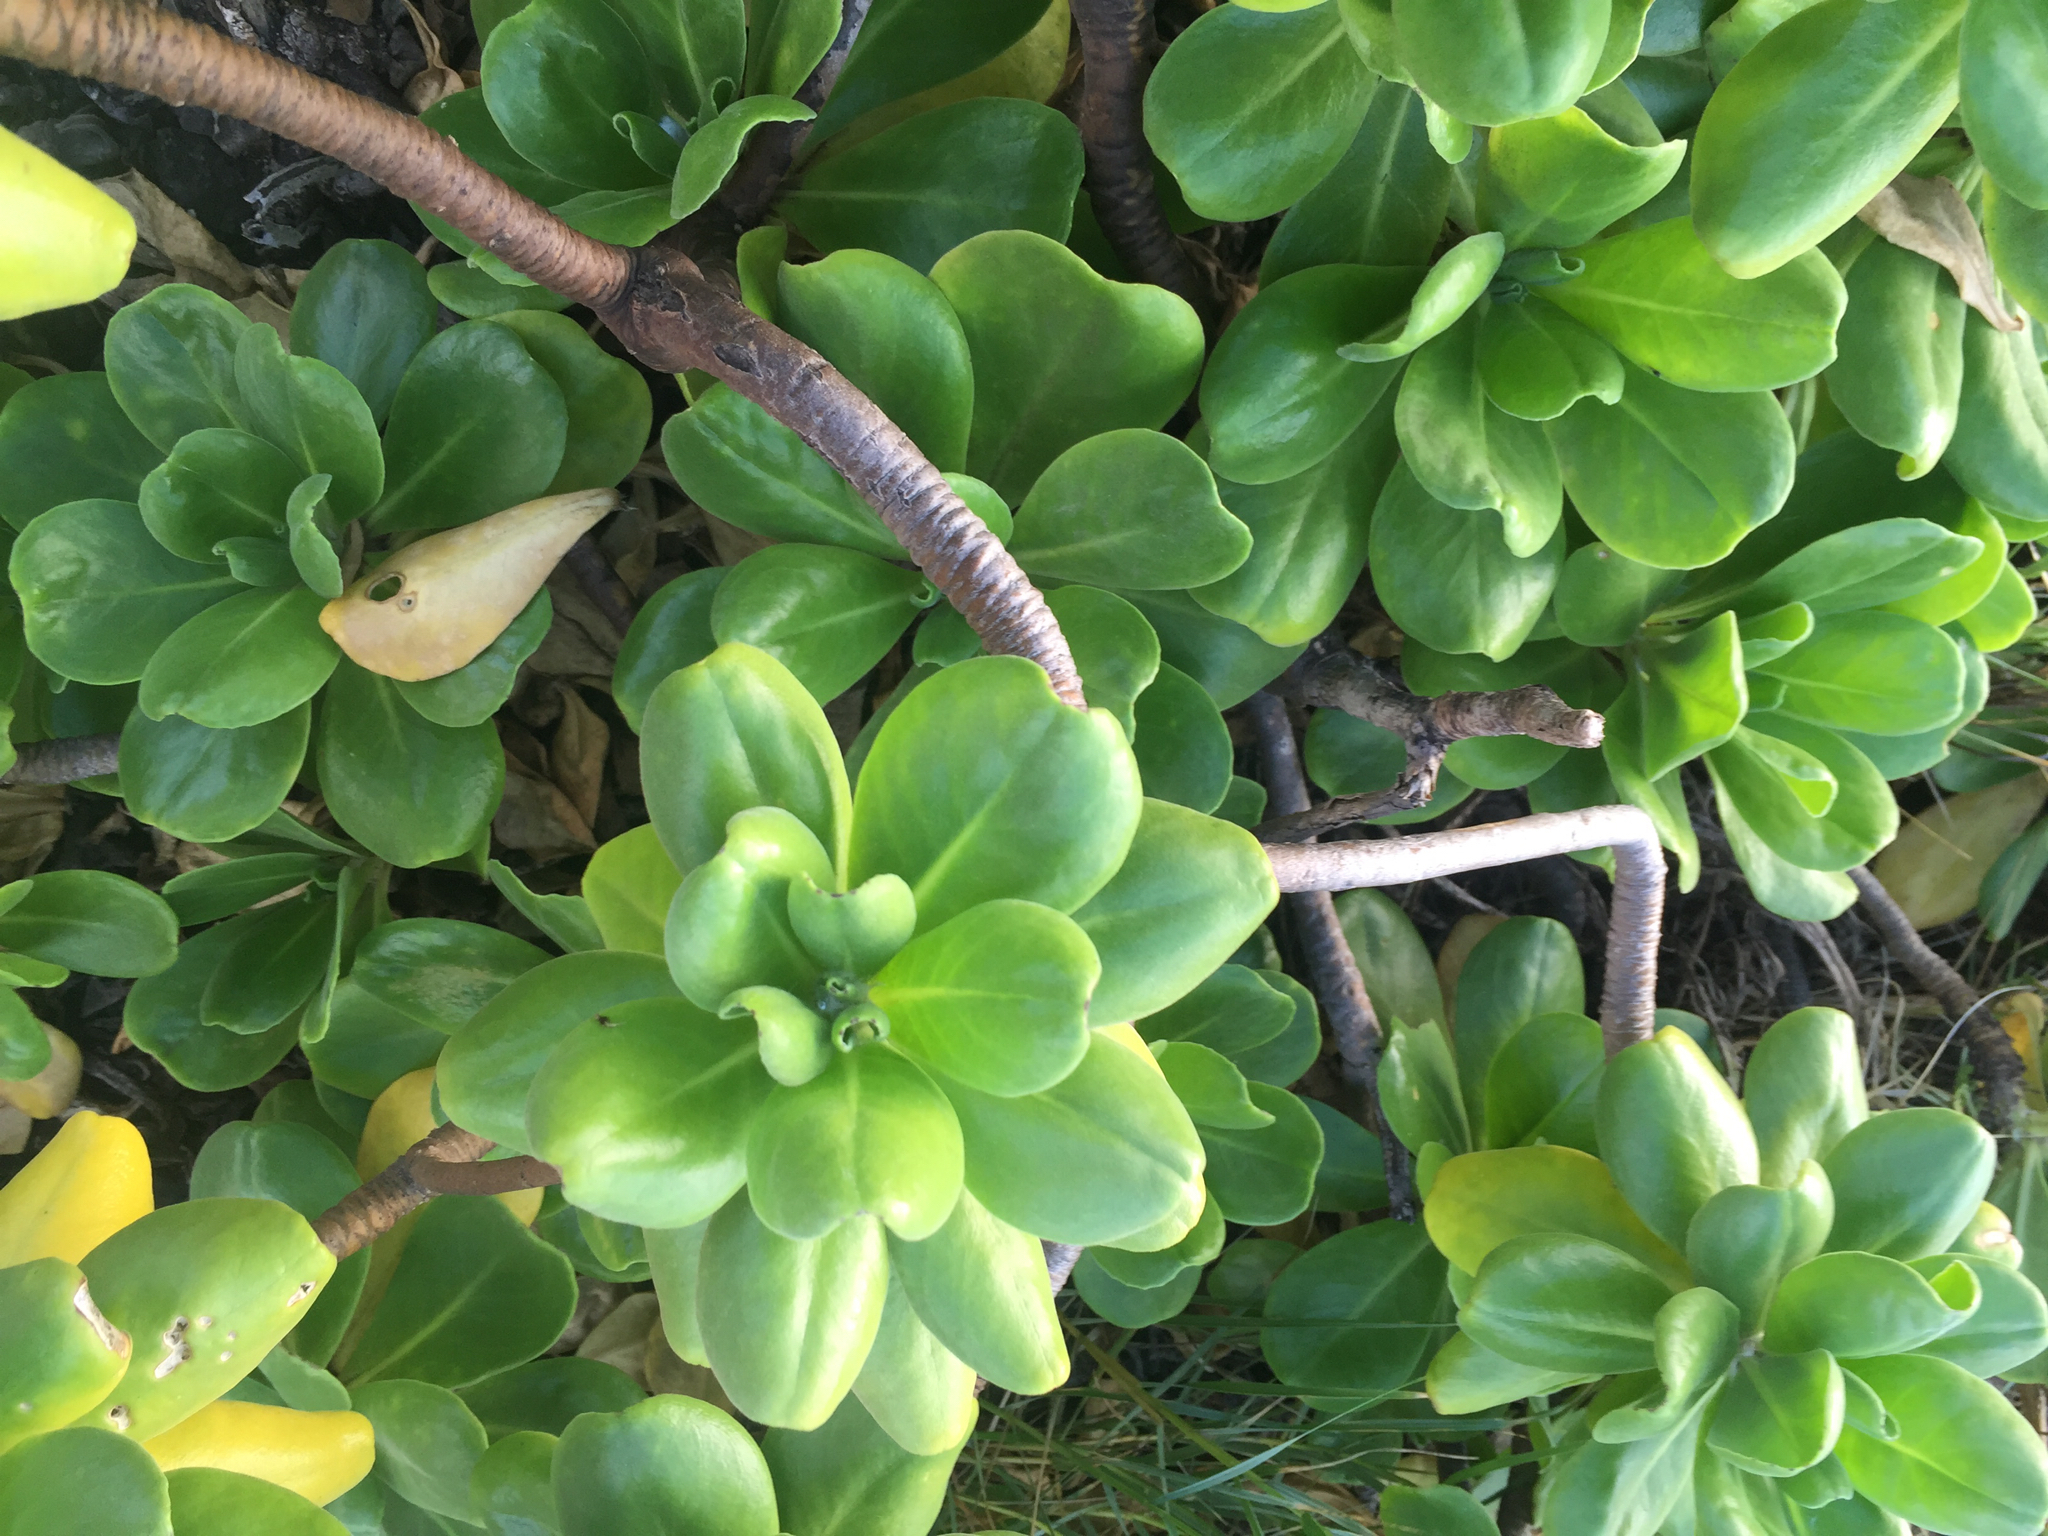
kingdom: Plantae
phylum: Tracheophyta
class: Magnoliopsida
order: Asterales
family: Goodeniaceae
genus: Scaevola
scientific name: Scaevola taccada
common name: Sea lettucetree
